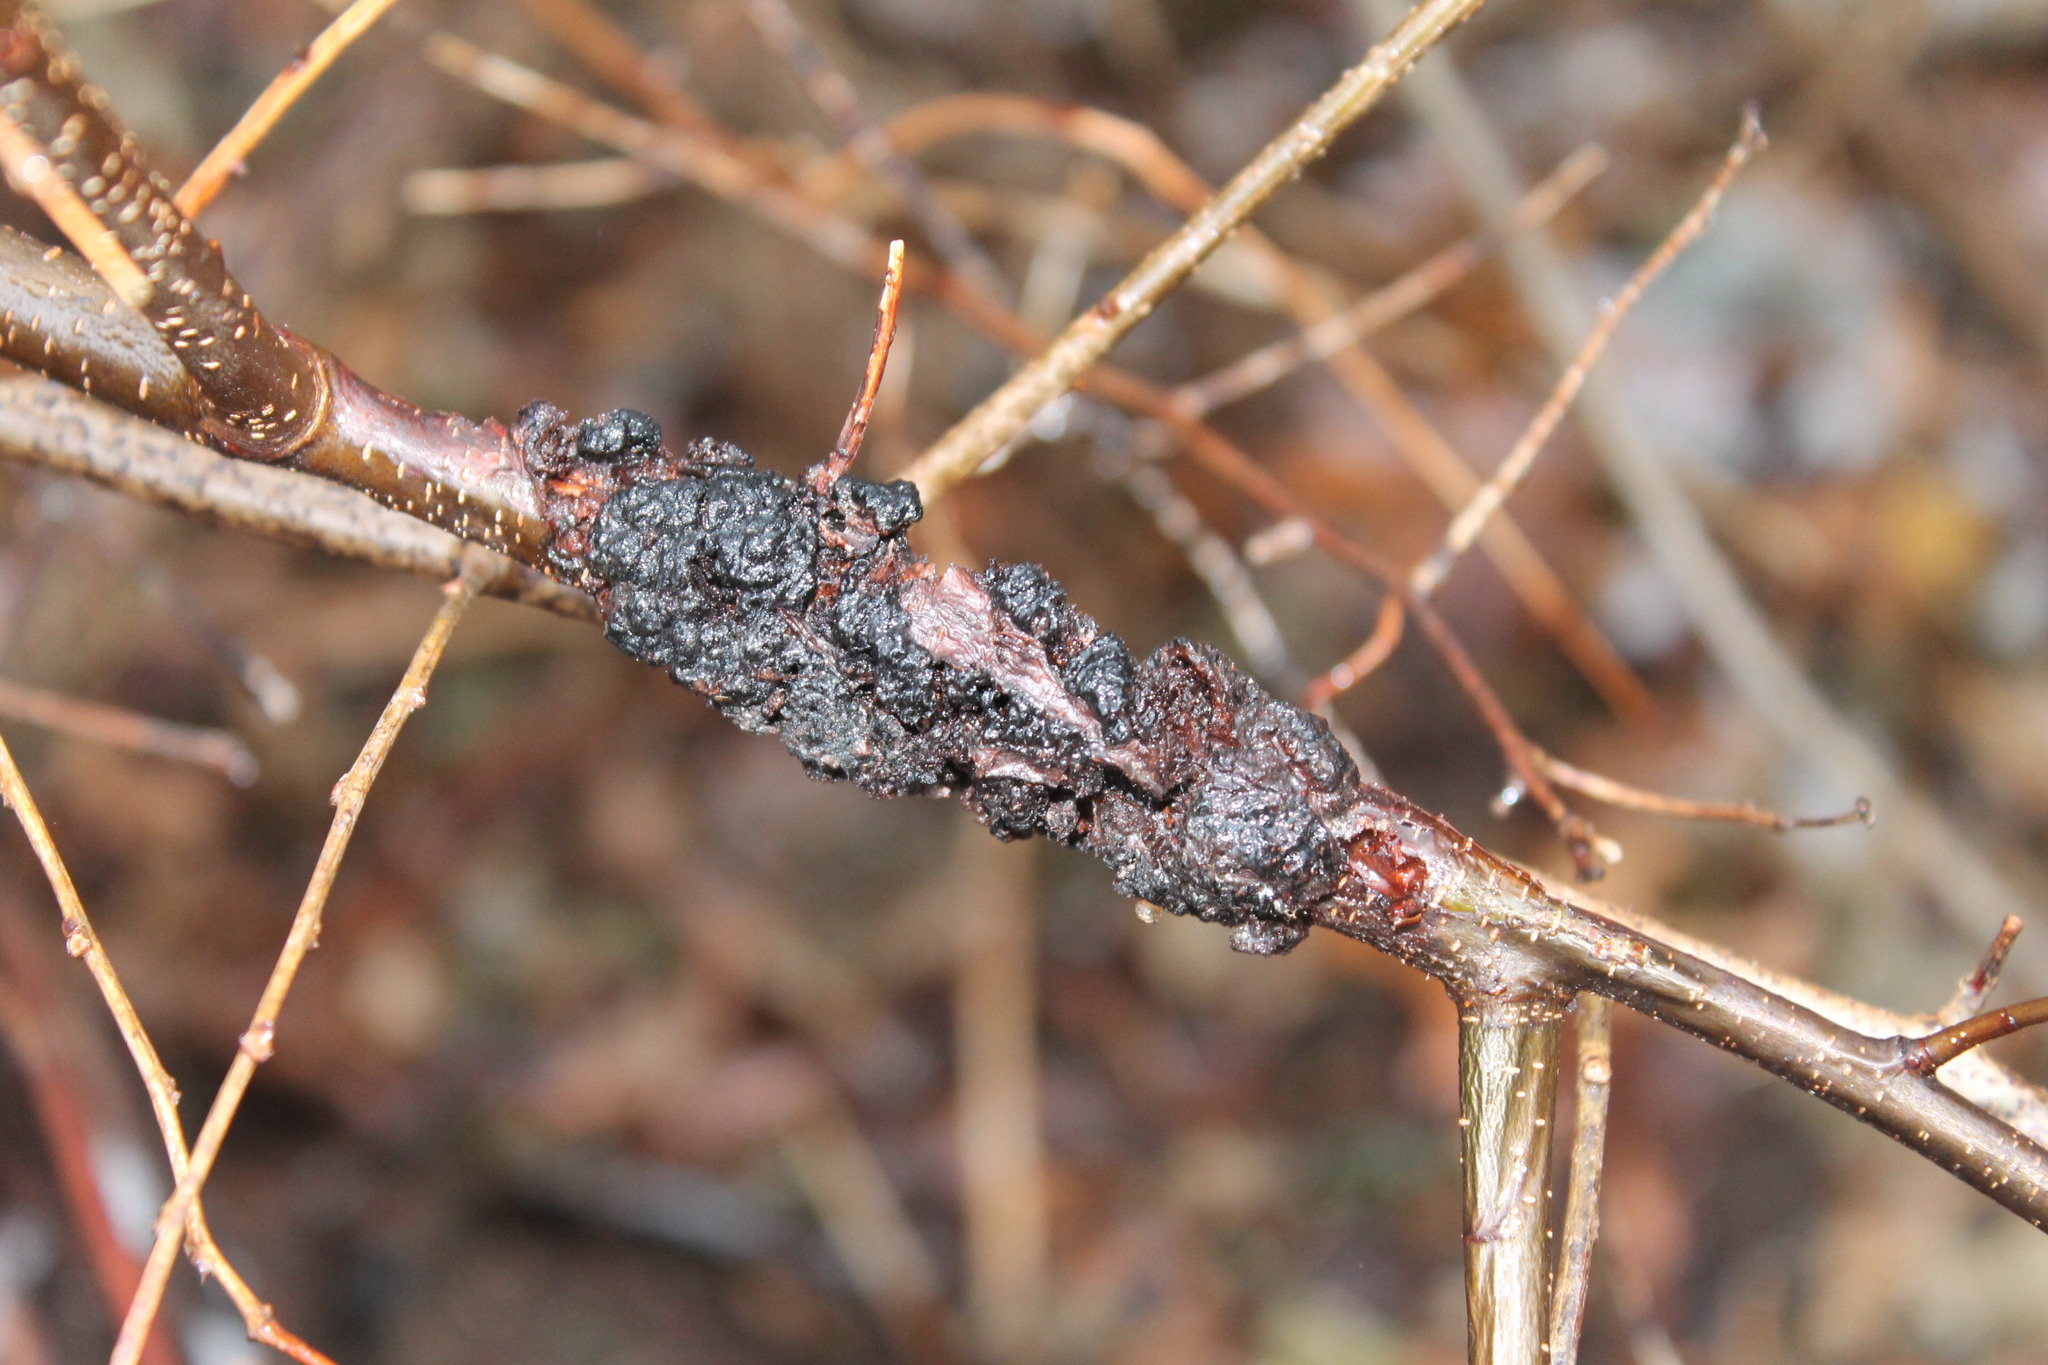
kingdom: Fungi
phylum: Ascomycota
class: Dothideomycetes
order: Venturiales
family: Venturiaceae
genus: Apiosporina
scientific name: Apiosporina morbosa
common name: Black knot
